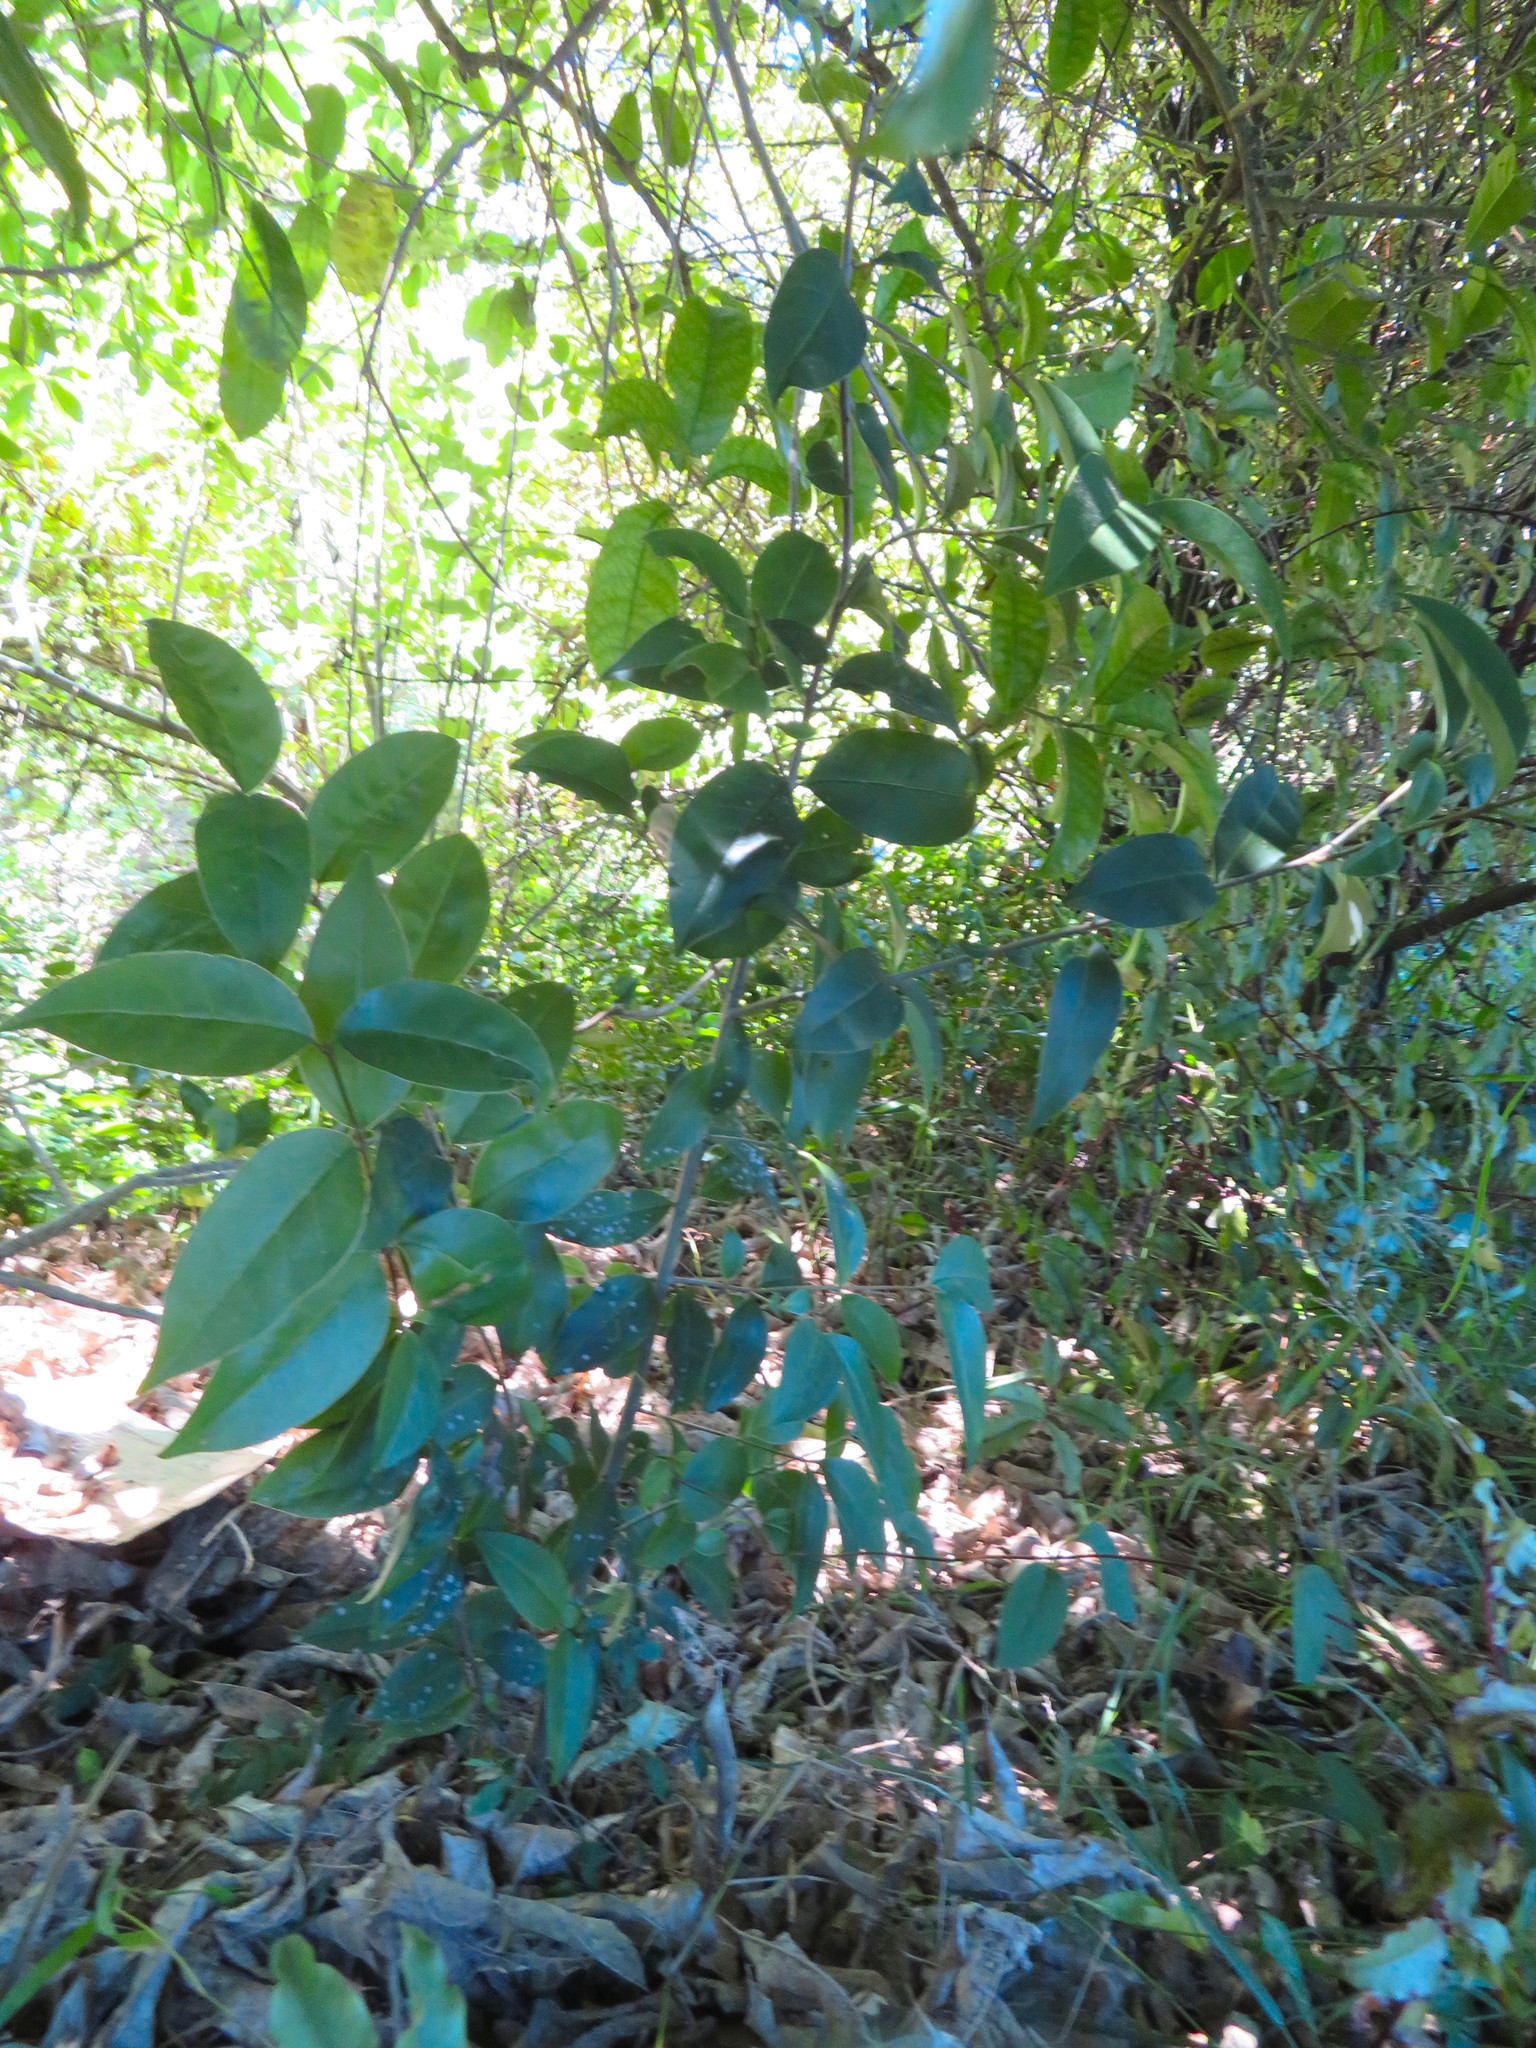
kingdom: Plantae
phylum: Tracheophyta
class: Magnoliopsida
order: Lamiales
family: Oleaceae
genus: Ligustrum
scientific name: Ligustrum lucidum
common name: Glossy privet
